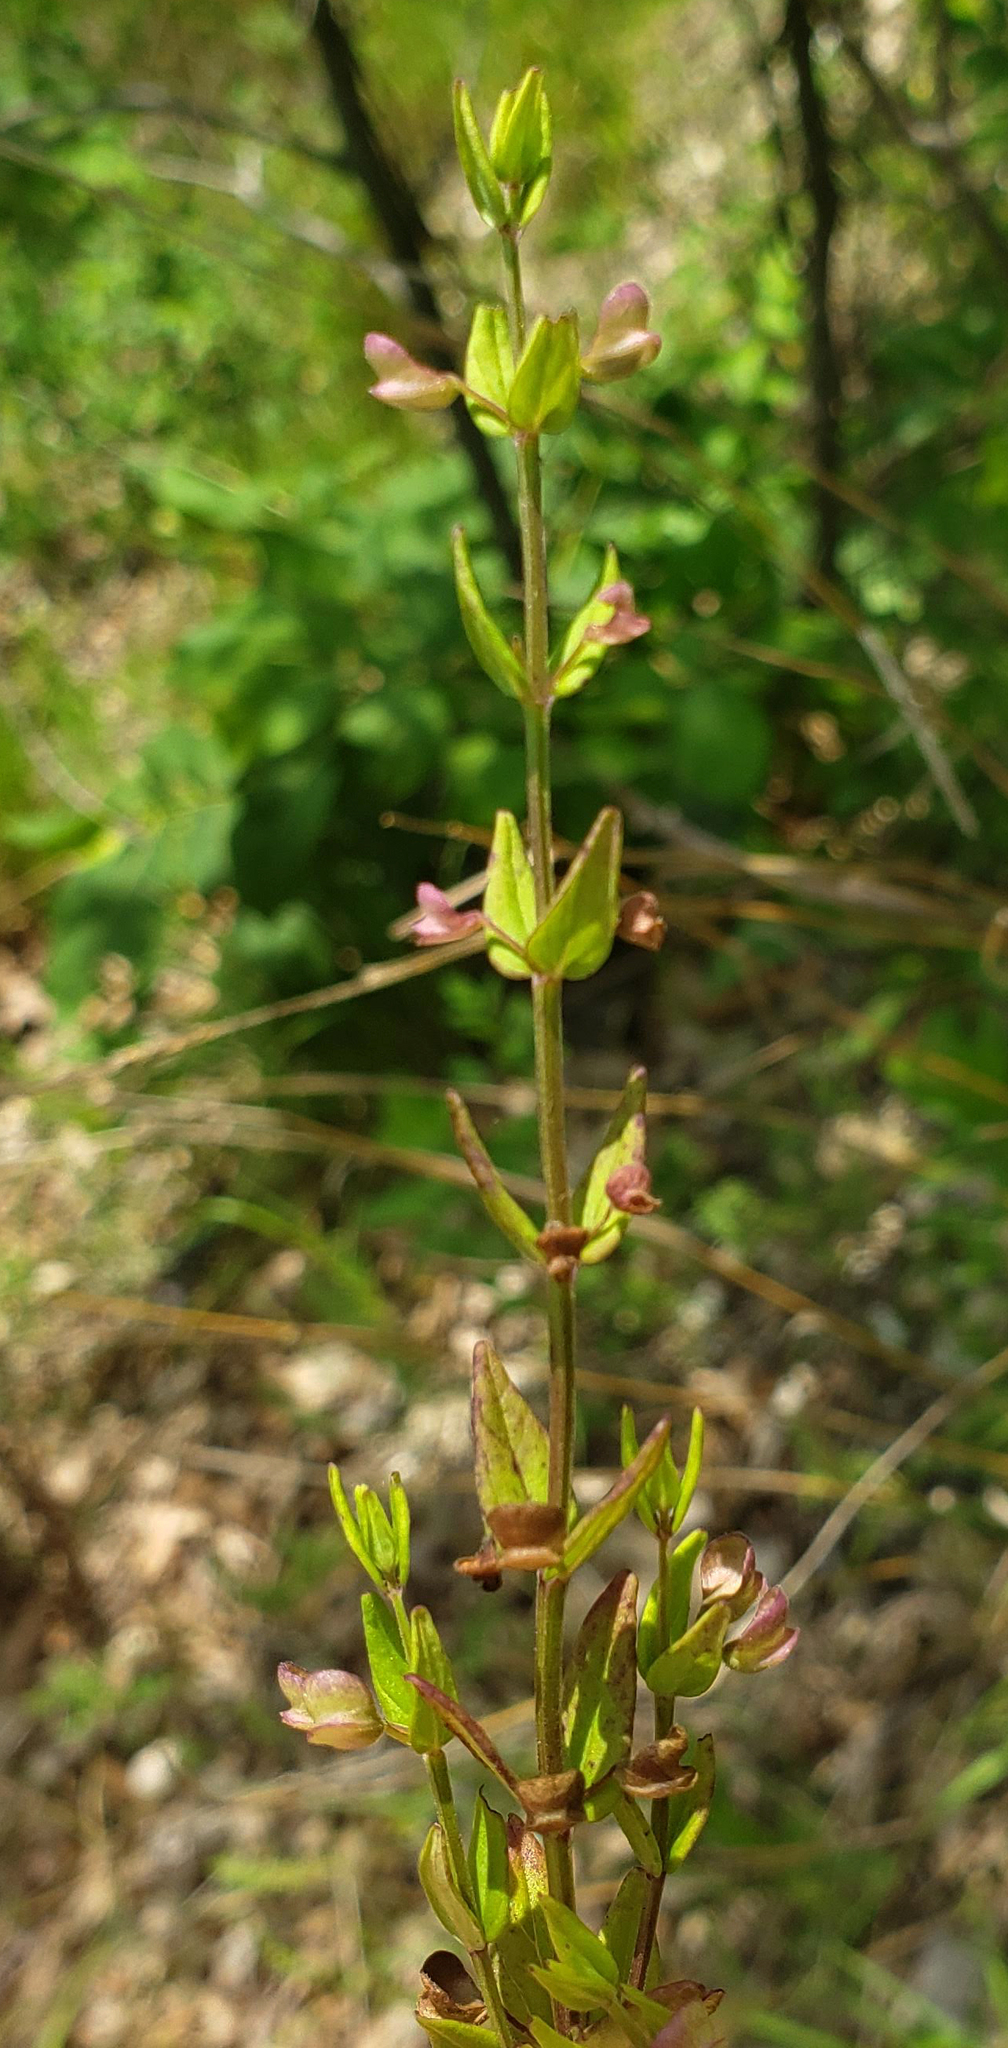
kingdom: Plantae
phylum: Tracheophyta
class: Magnoliopsida
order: Lamiales
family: Lamiaceae
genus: Scutellaria
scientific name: Scutellaria parvula
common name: Little scullcap
